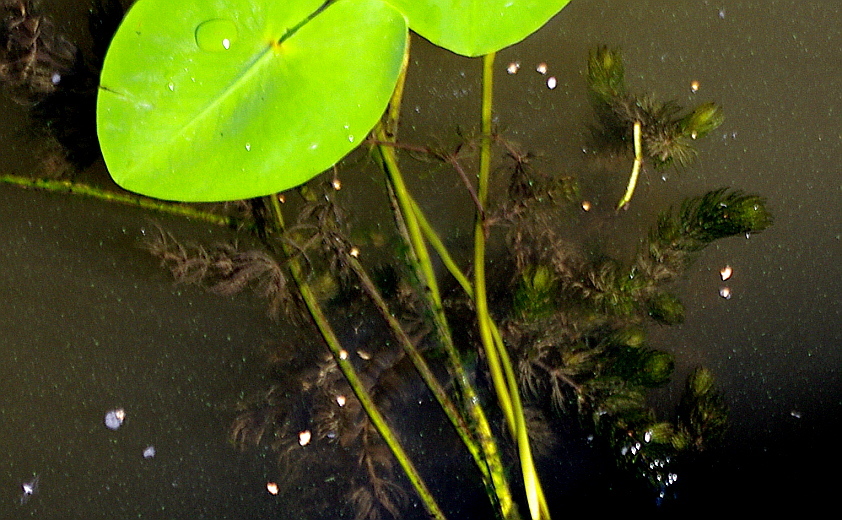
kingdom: Plantae
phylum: Tracheophyta
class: Magnoliopsida
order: Ceratophyllales
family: Ceratophyllaceae
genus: Ceratophyllum
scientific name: Ceratophyllum demersum
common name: Rigid hornwort
